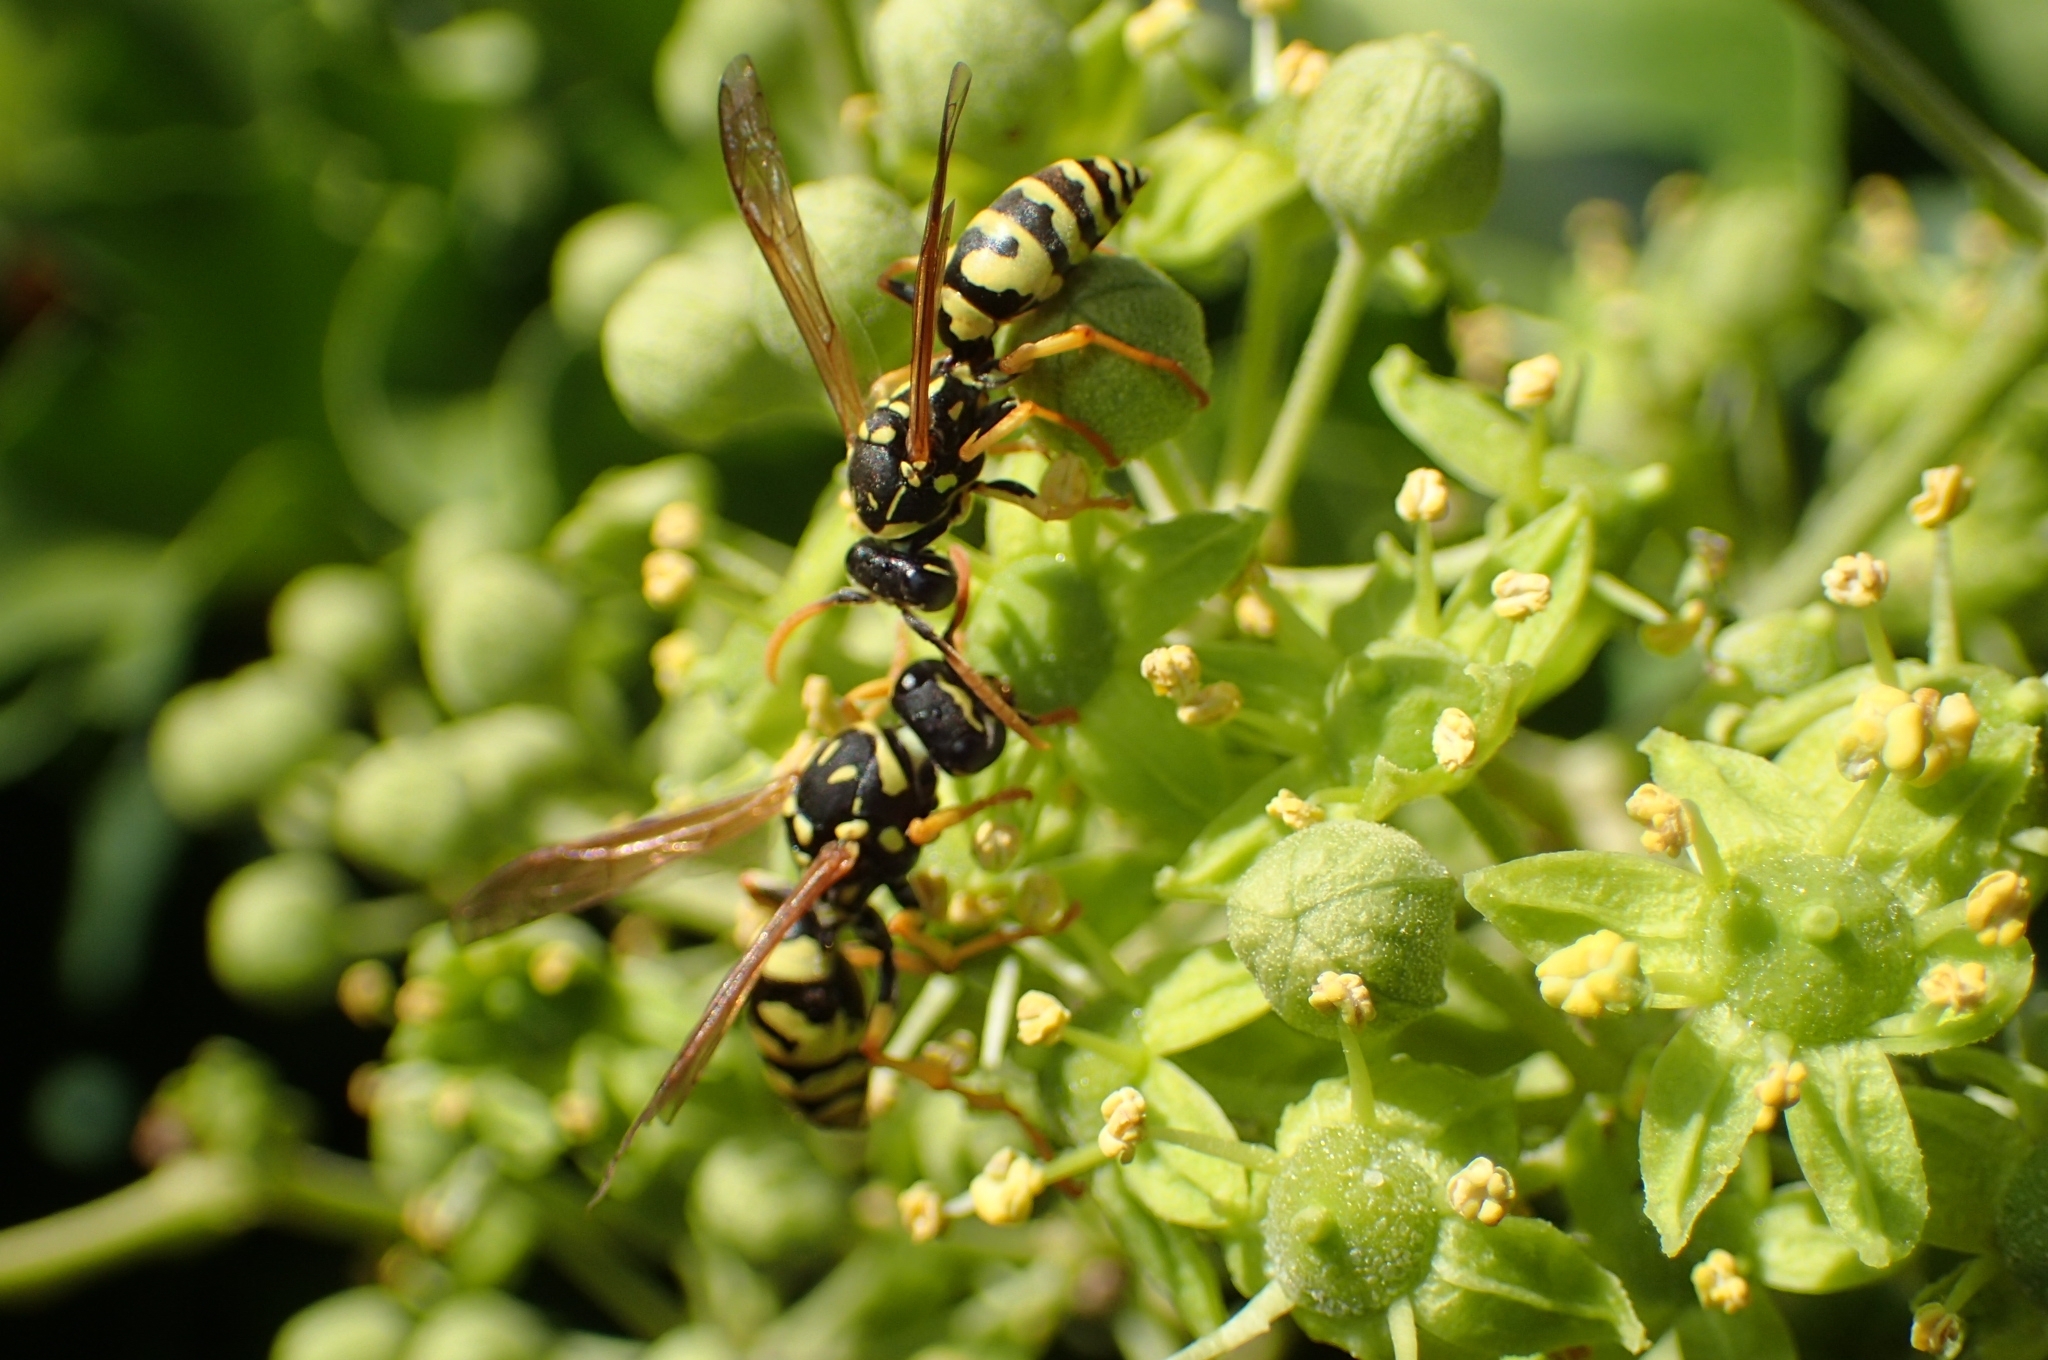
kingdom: Animalia
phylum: Arthropoda
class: Insecta
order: Hymenoptera
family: Eumenidae
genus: Polistes
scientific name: Polistes gallicus
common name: Paper wasp
